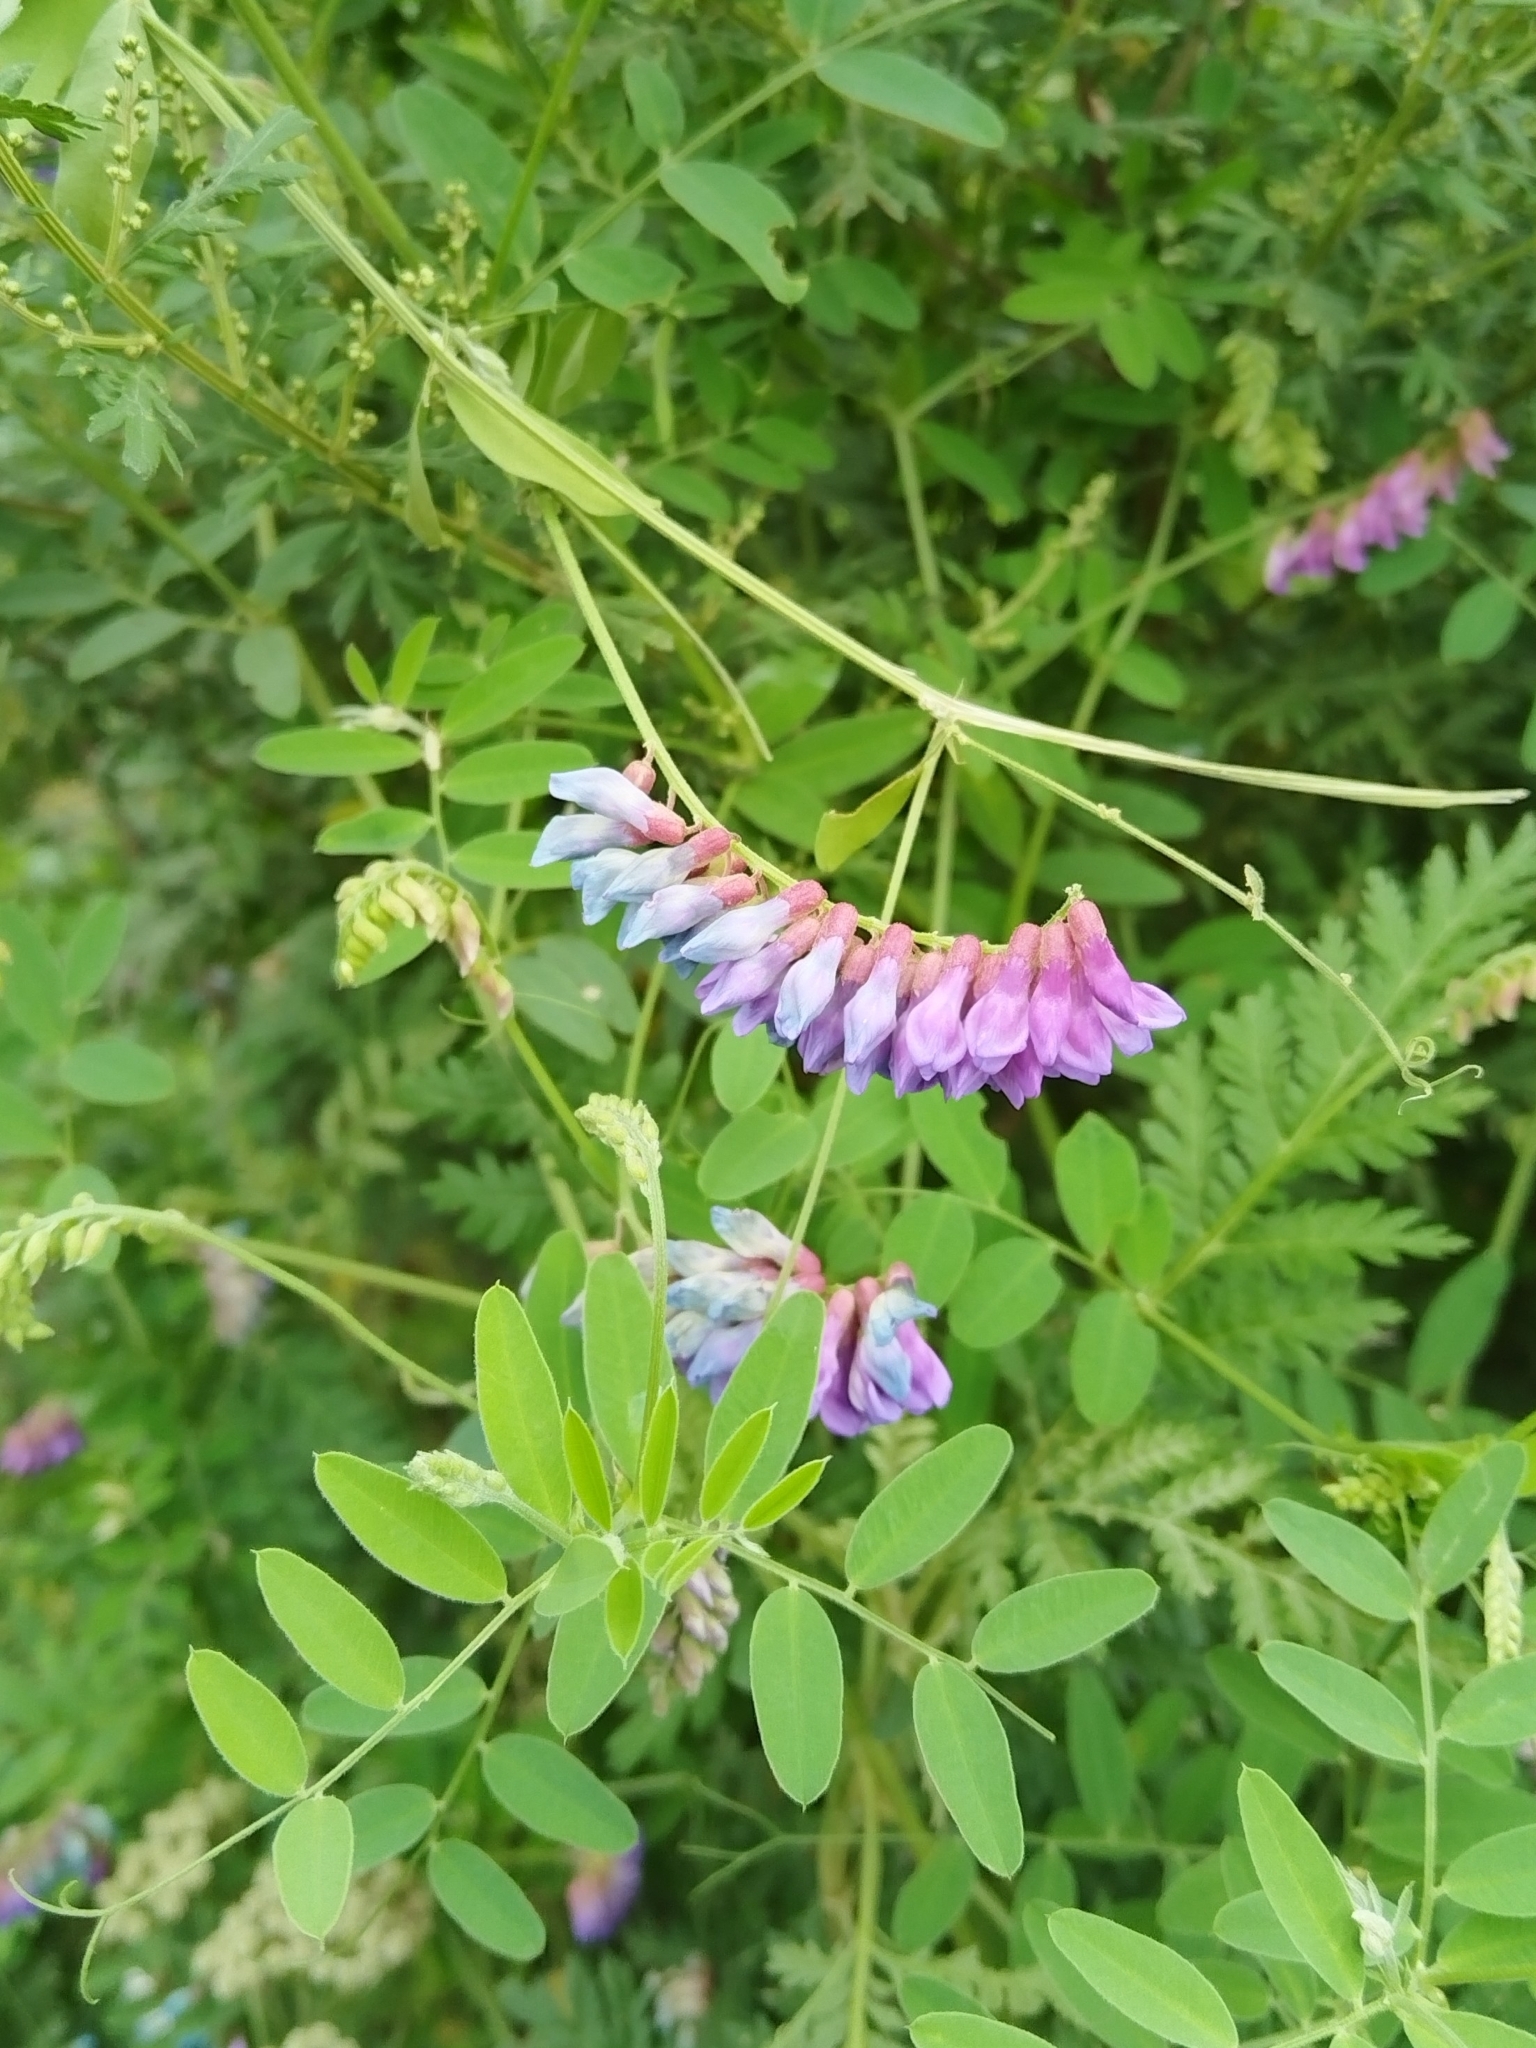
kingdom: Plantae
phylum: Tracheophyta
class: Magnoliopsida
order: Fabales
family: Fabaceae
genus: Vicia
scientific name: Vicia amurensis
